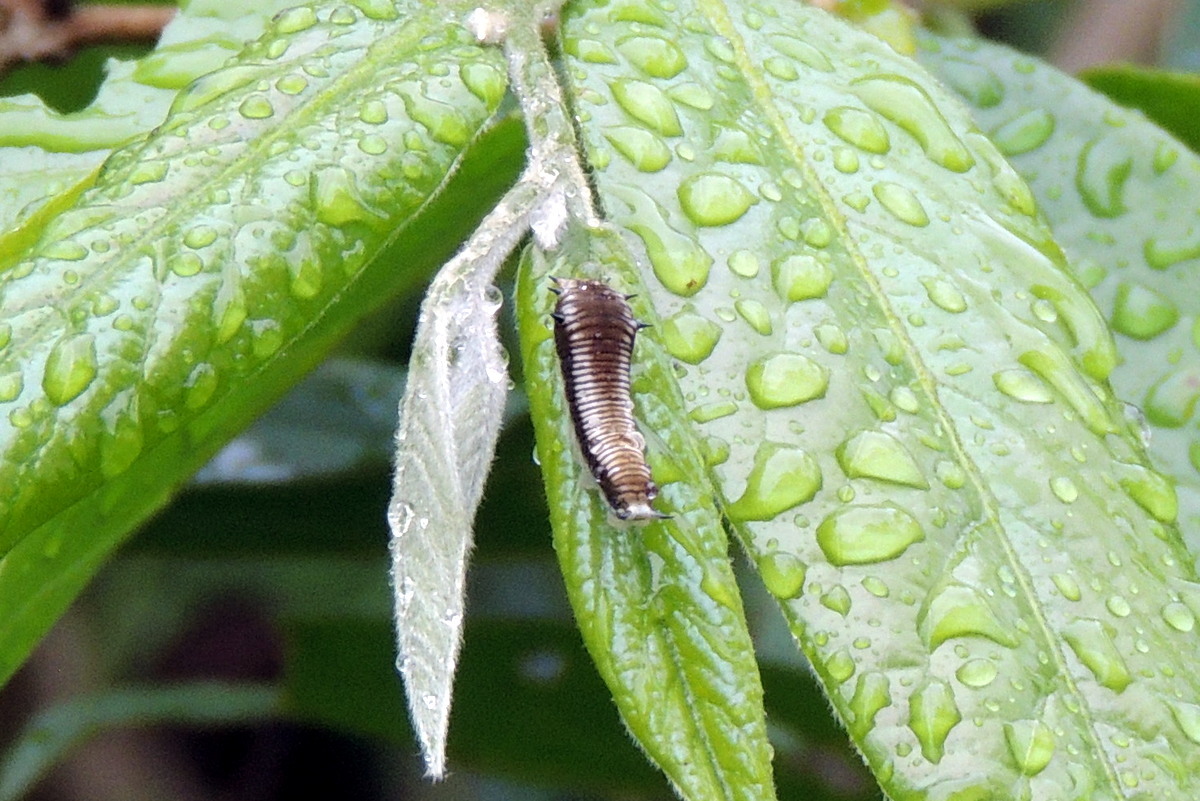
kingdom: Animalia
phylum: Arthropoda
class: Insecta
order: Lepidoptera
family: Papilionidae
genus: Graphium
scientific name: Graphium nomius
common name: Spot swordtail
